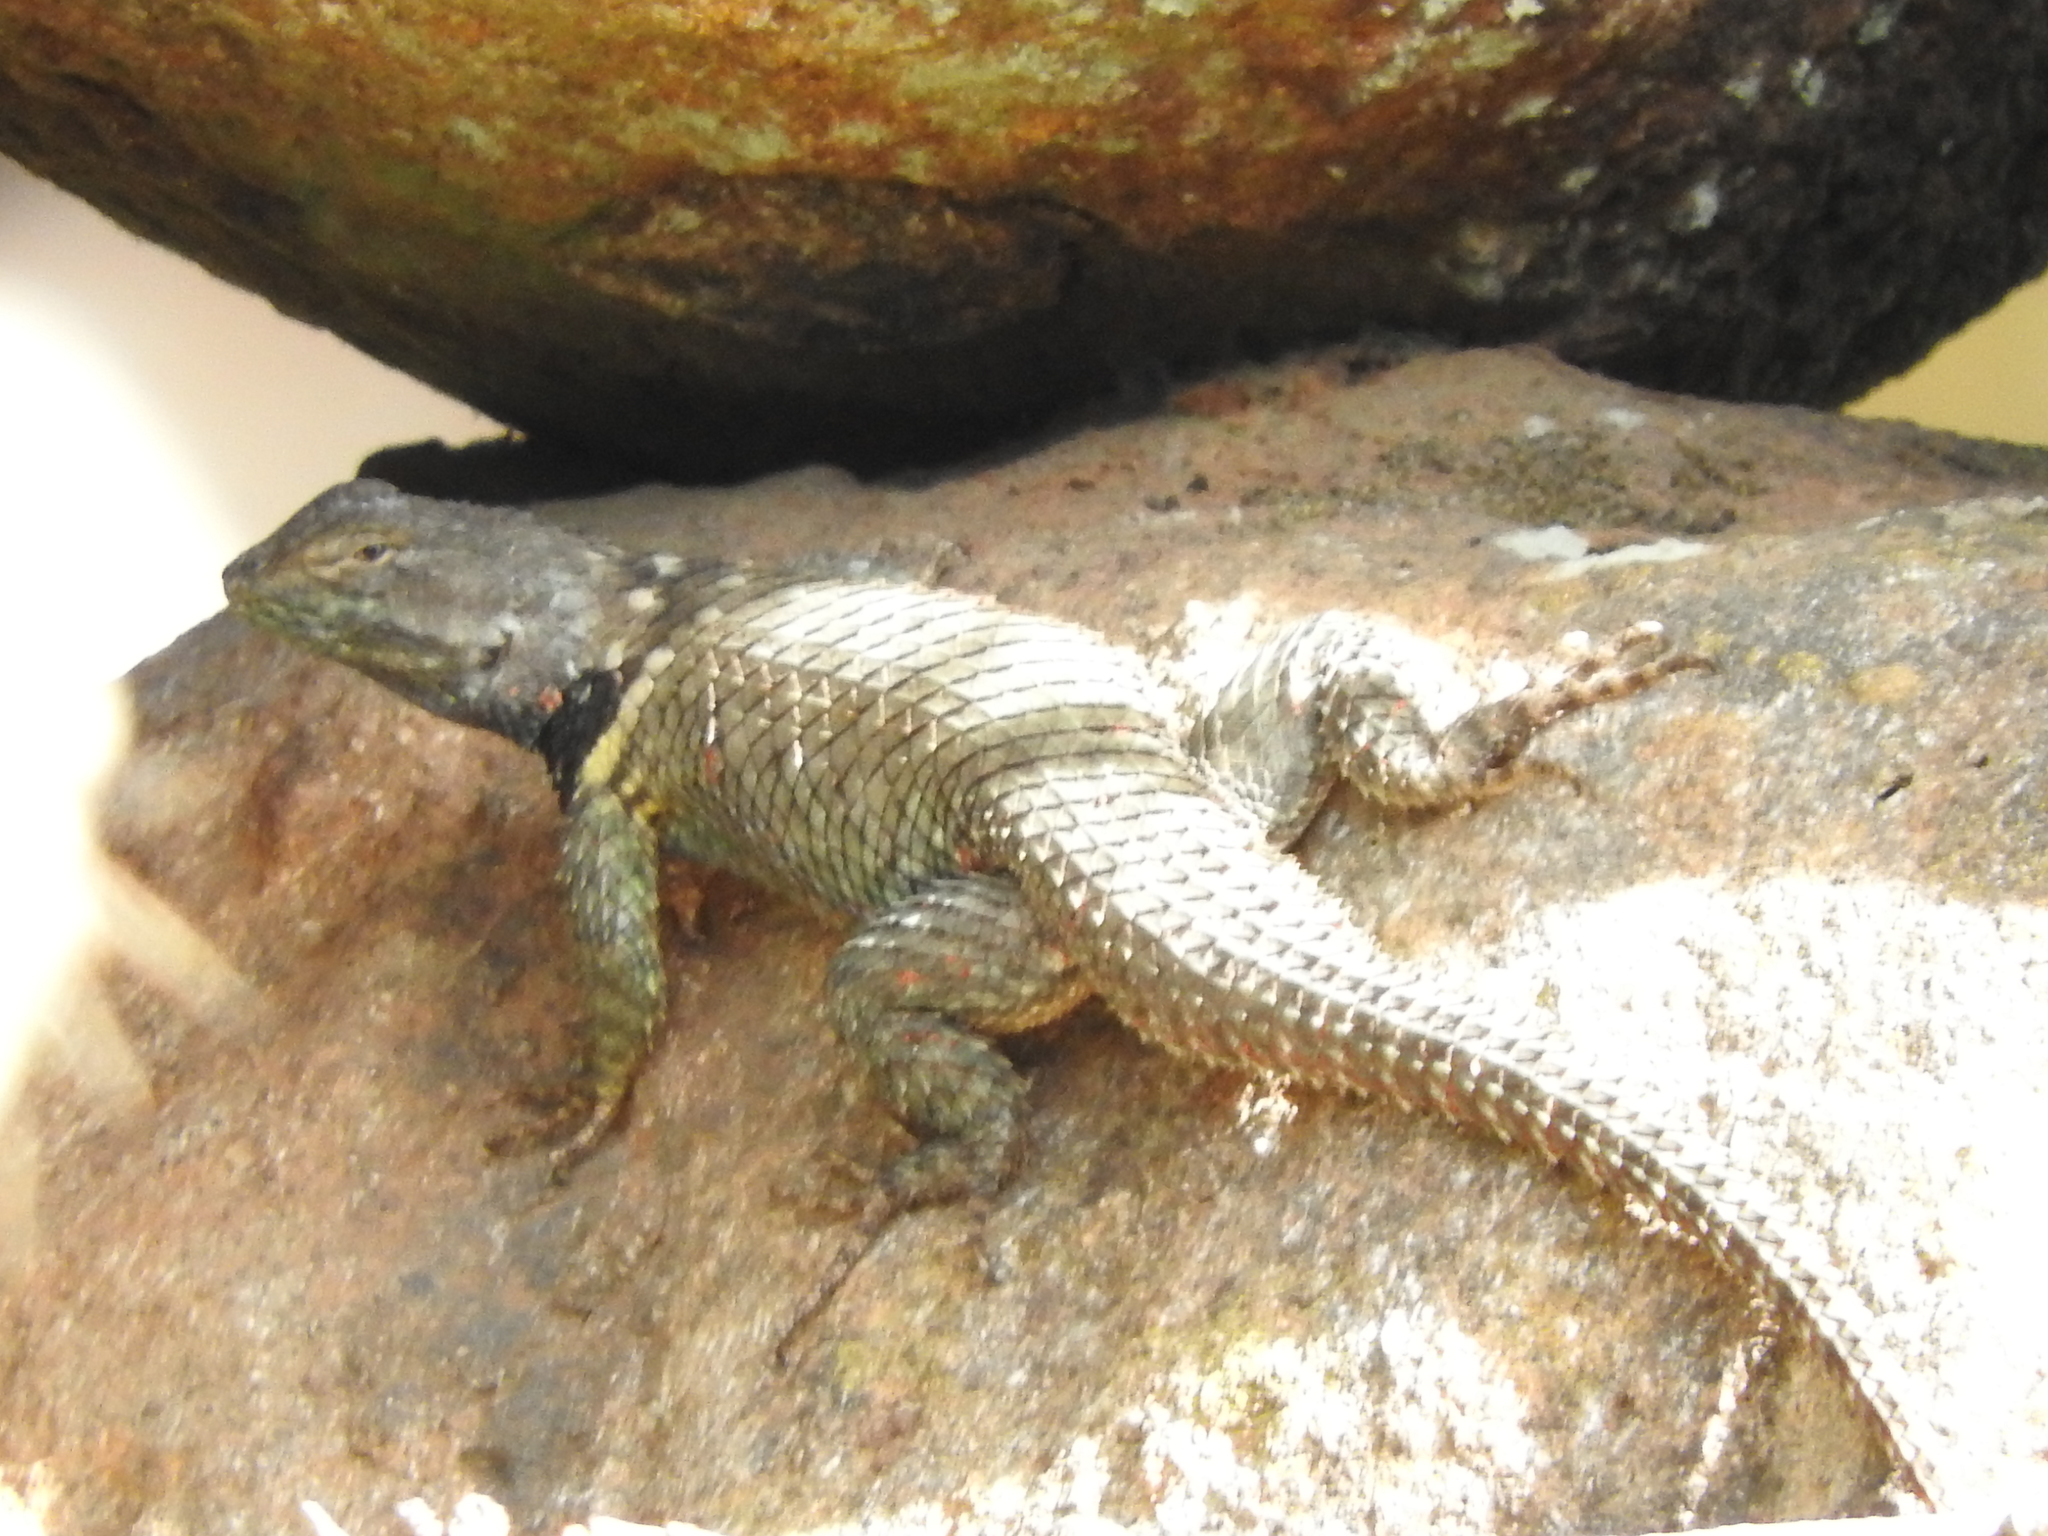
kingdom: Animalia
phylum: Chordata
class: Squamata
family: Phrynosomatidae
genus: Sceloporus
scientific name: Sceloporus torquatus
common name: Central plateau torquate lizard [melanogaster]
